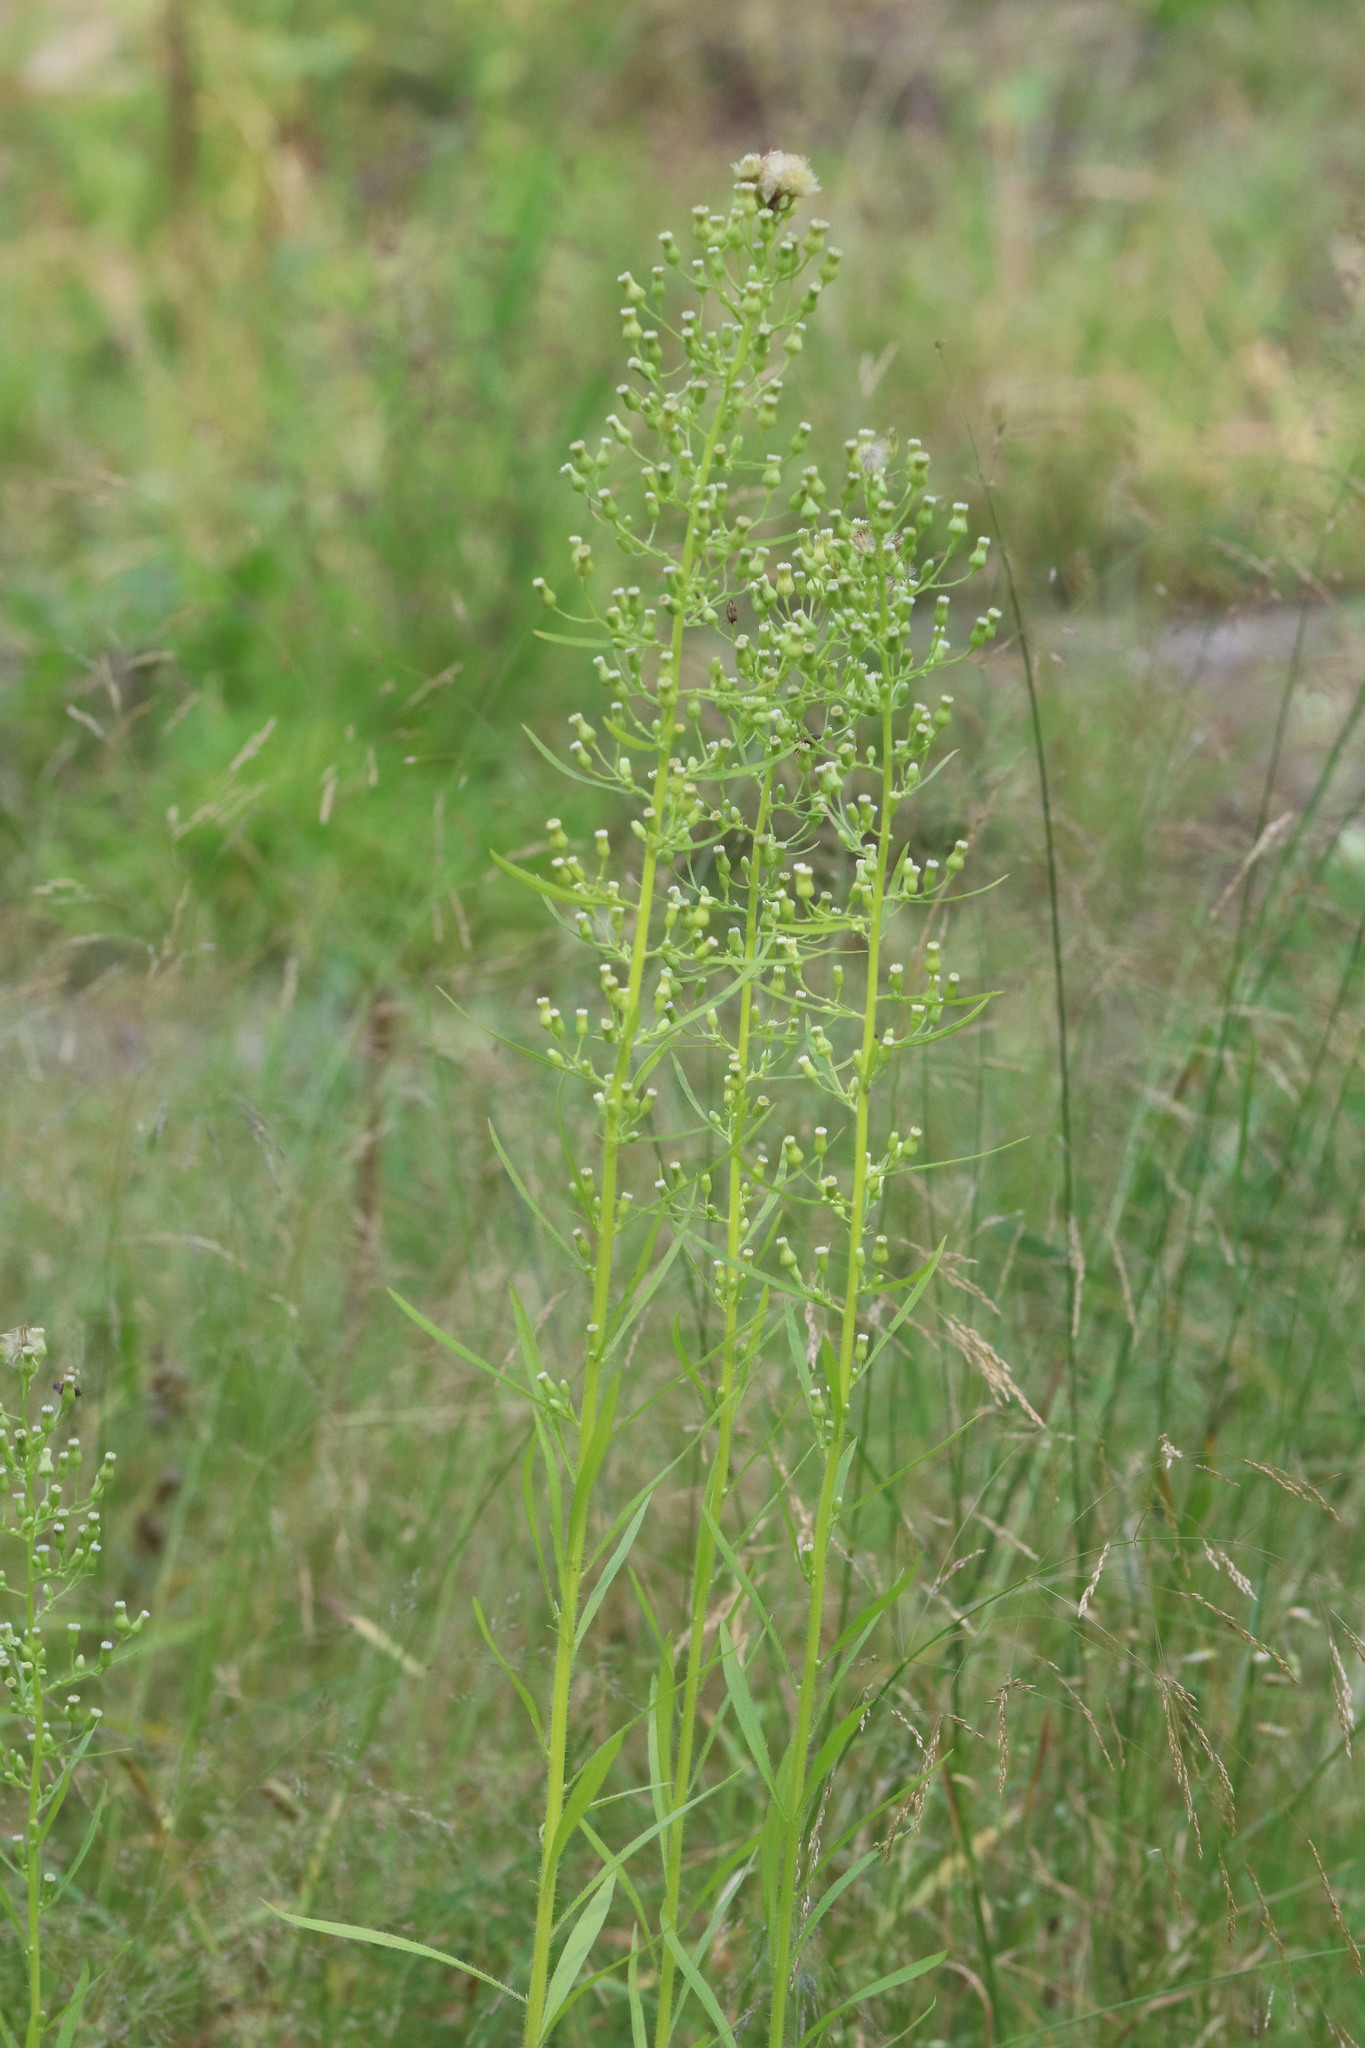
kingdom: Plantae
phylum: Tracheophyta
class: Magnoliopsida
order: Asterales
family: Asteraceae
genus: Erigeron
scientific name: Erigeron canadensis
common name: Canadian fleabane
